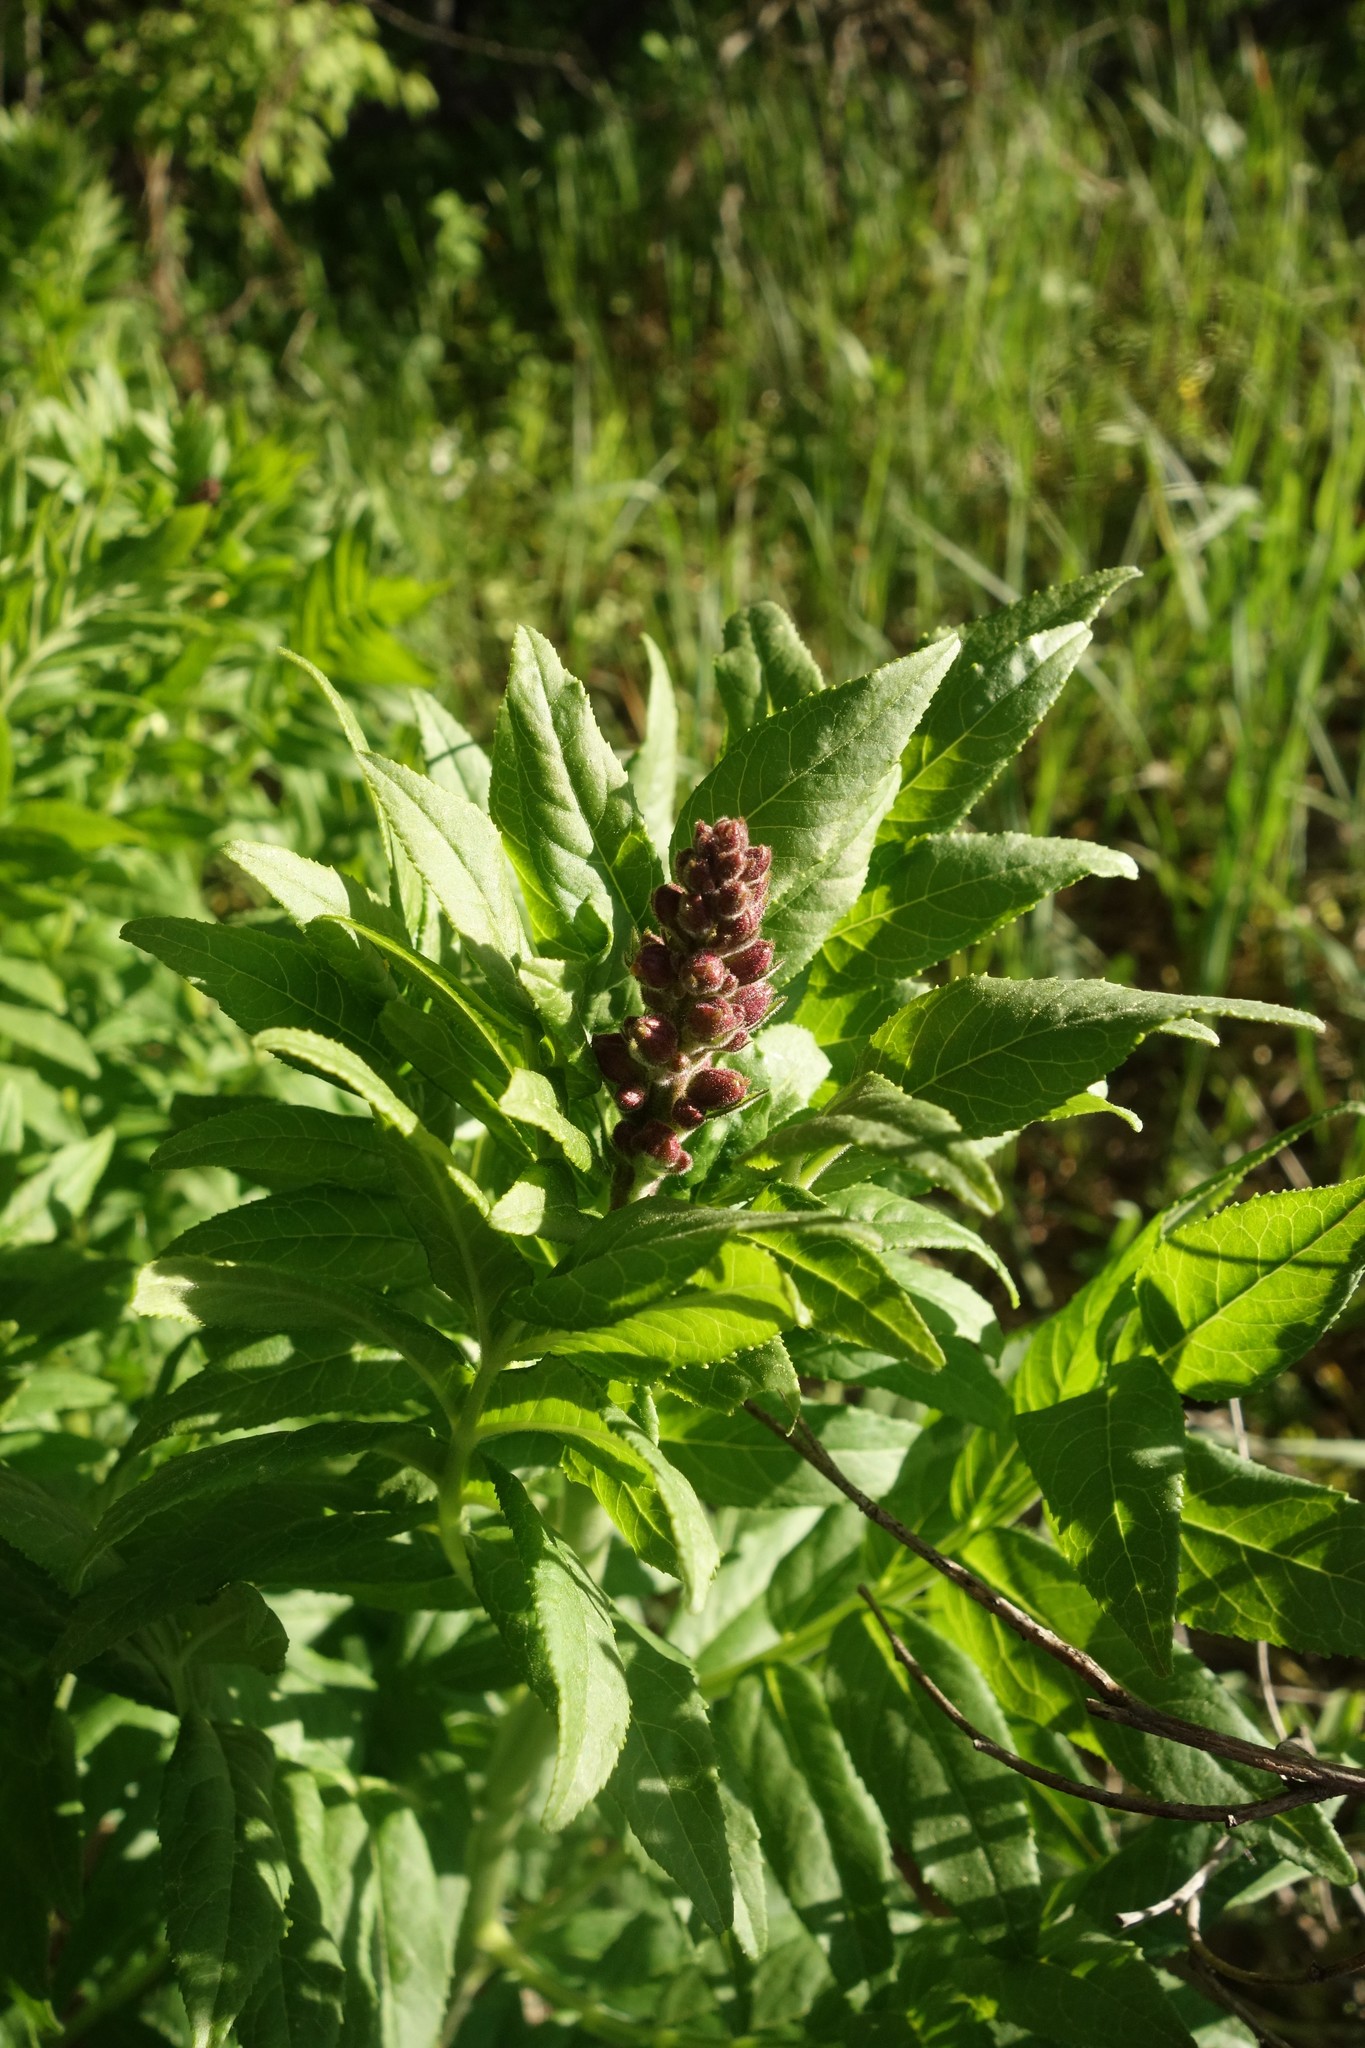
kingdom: Plantae
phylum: Tracheophyta
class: Magnoliopsida
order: Sapindales
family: Rutaceae
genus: Dictamnus
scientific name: Dictamnus albus
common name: Gasplant
